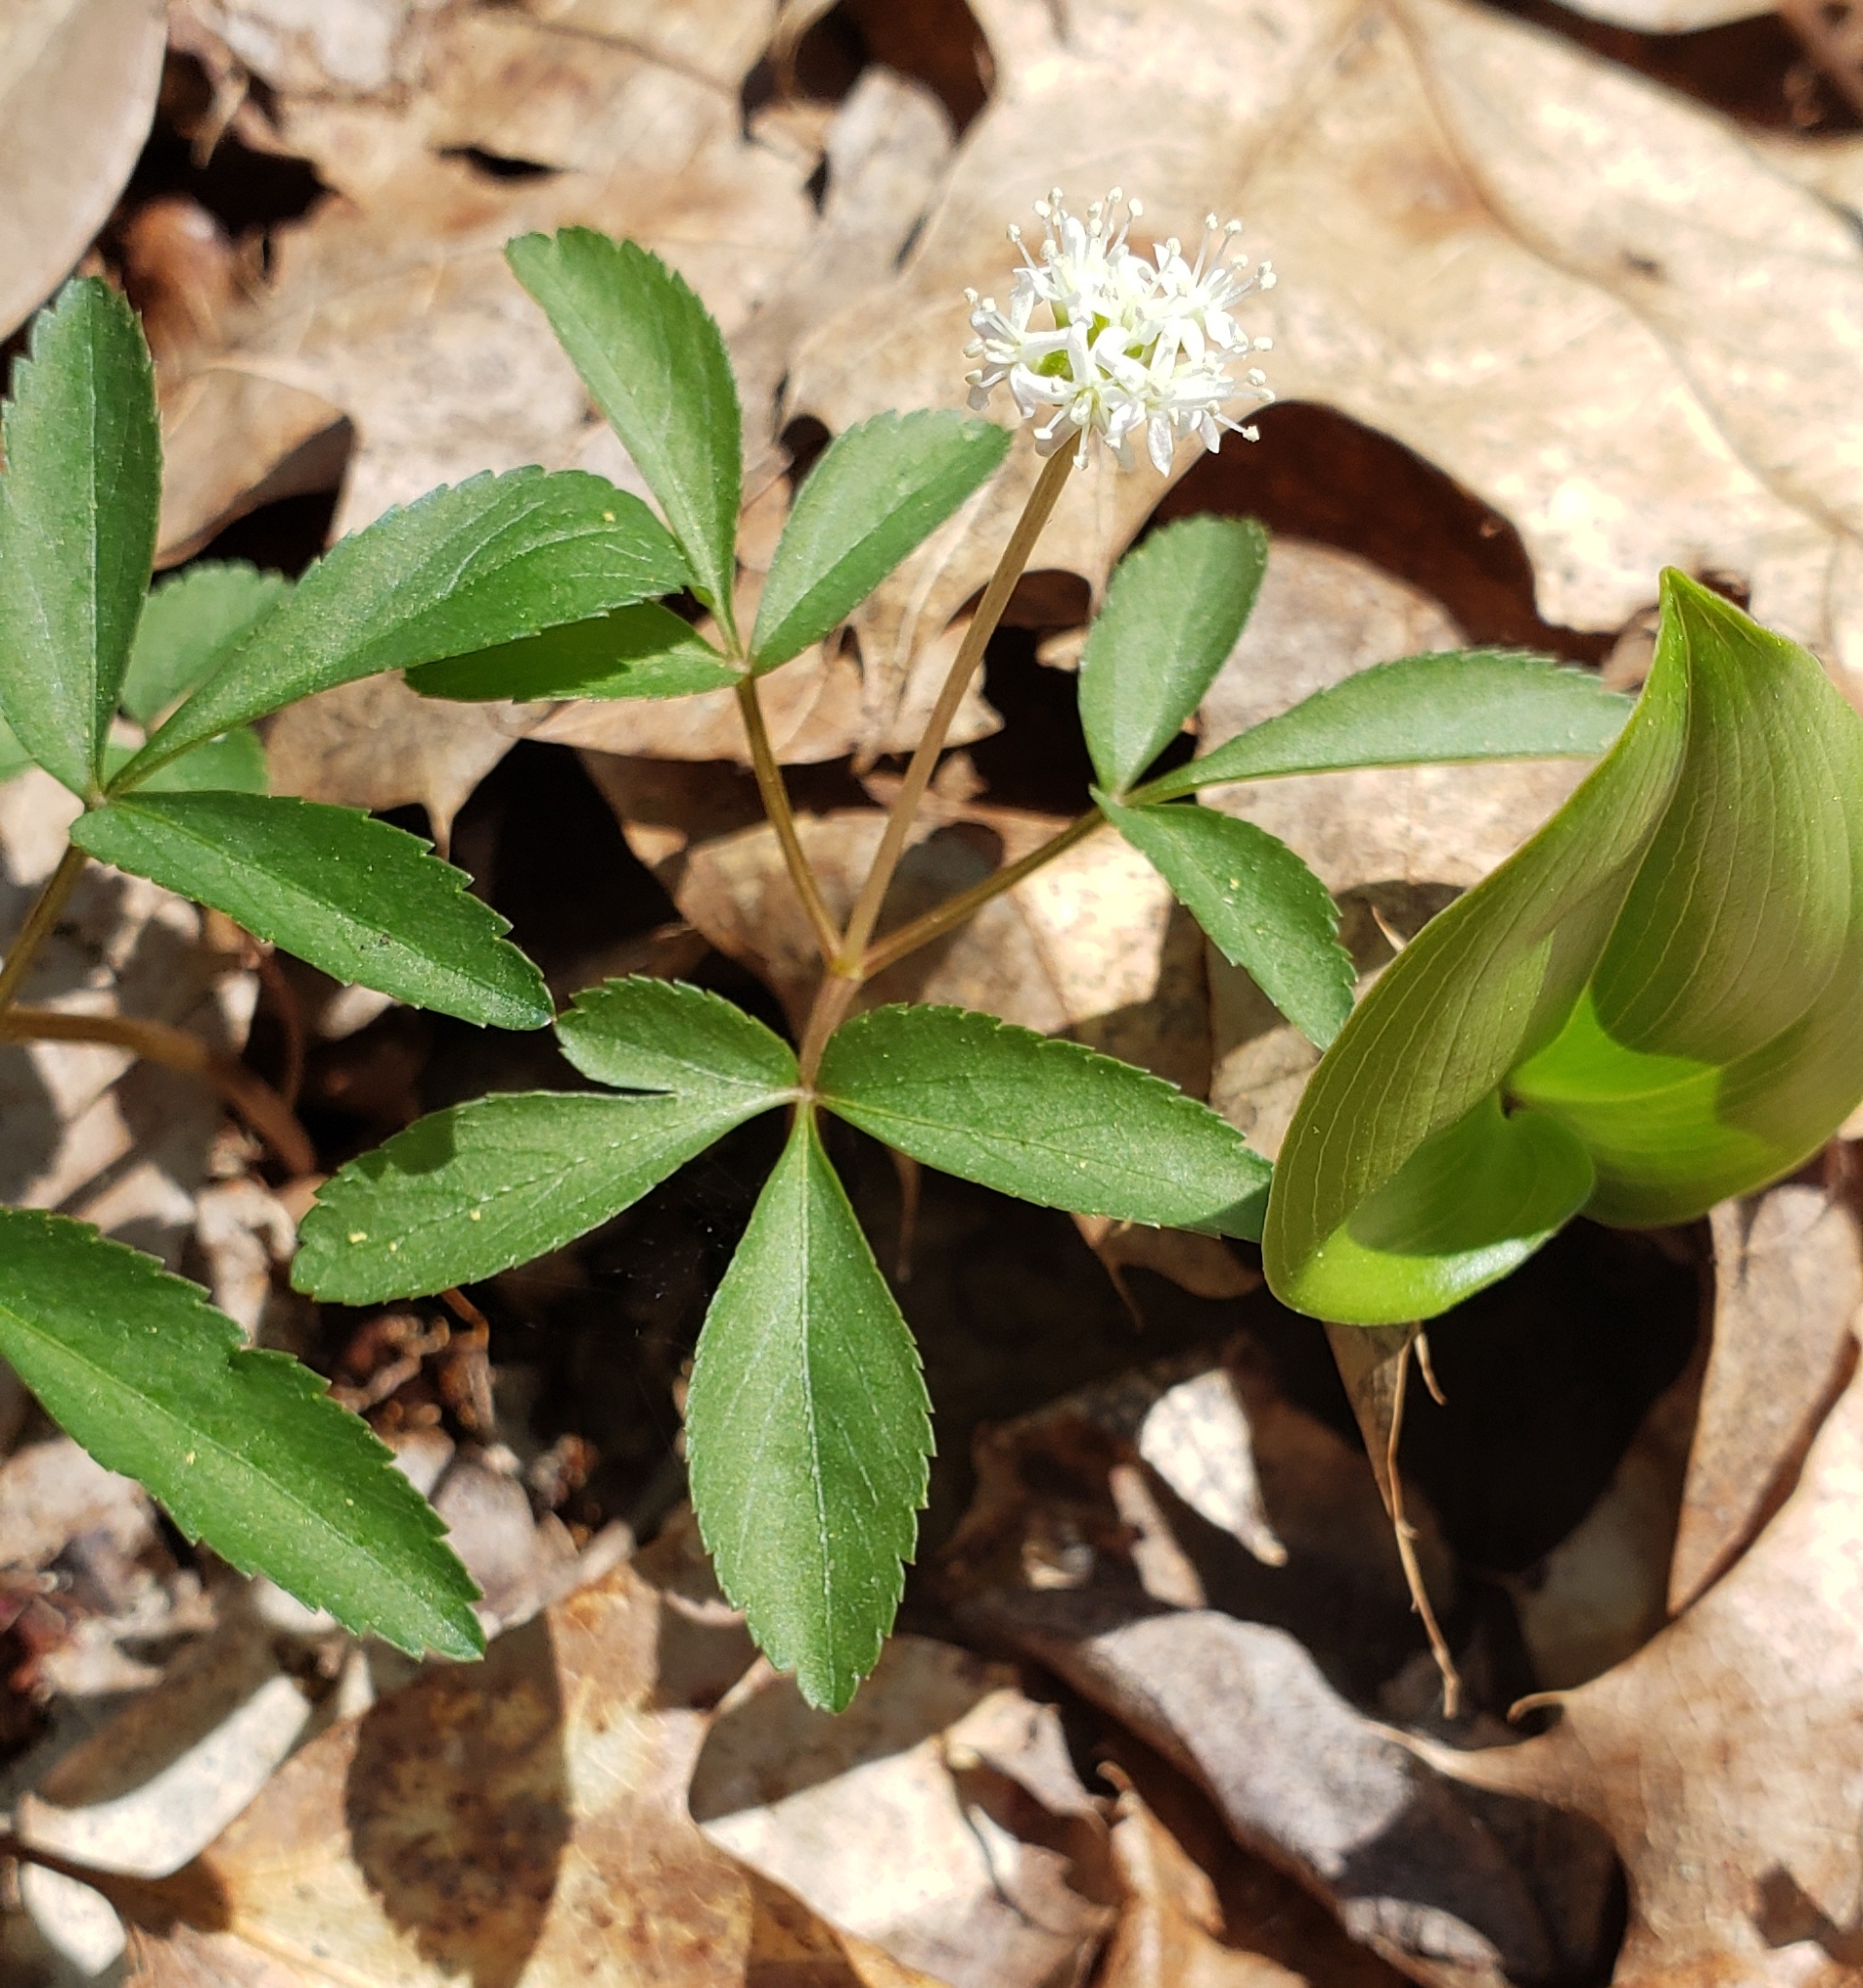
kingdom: Plantae
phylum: Tracheophyta
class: Magnoliopsida
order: Apiales
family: Araliaceae
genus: Panax
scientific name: Panax trifolius
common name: Dwarf ginseng
